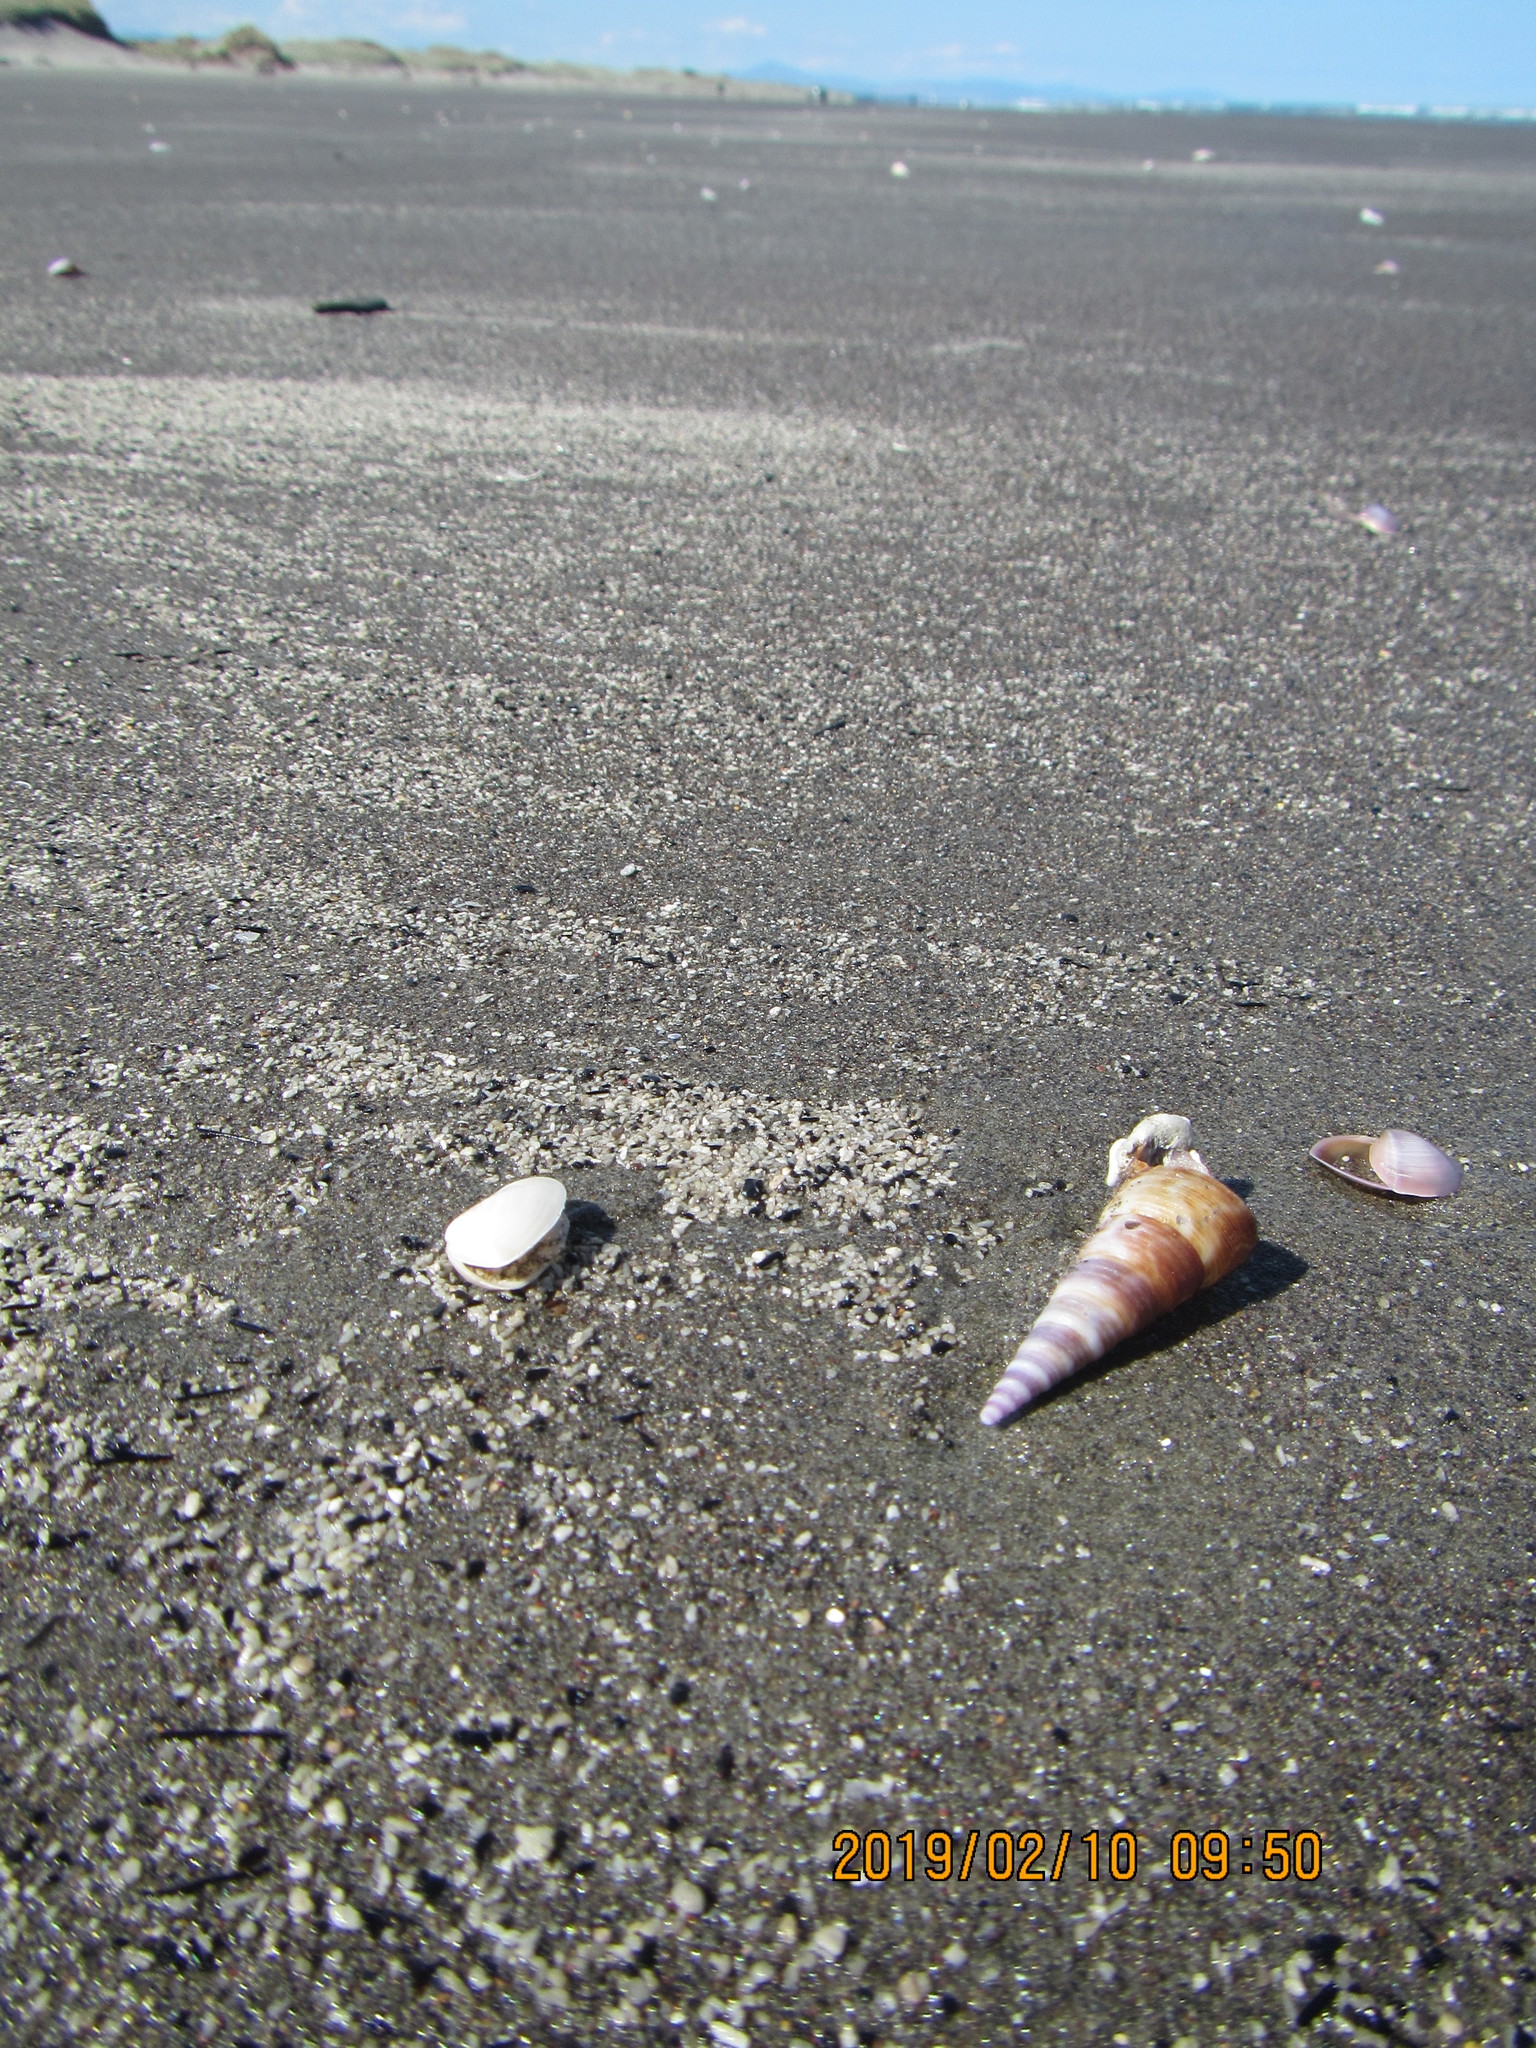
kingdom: Animalia
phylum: Mollusca
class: Gastropoda
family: Turritellidae
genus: Maoricolpus
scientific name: Maoricolpus roseus
